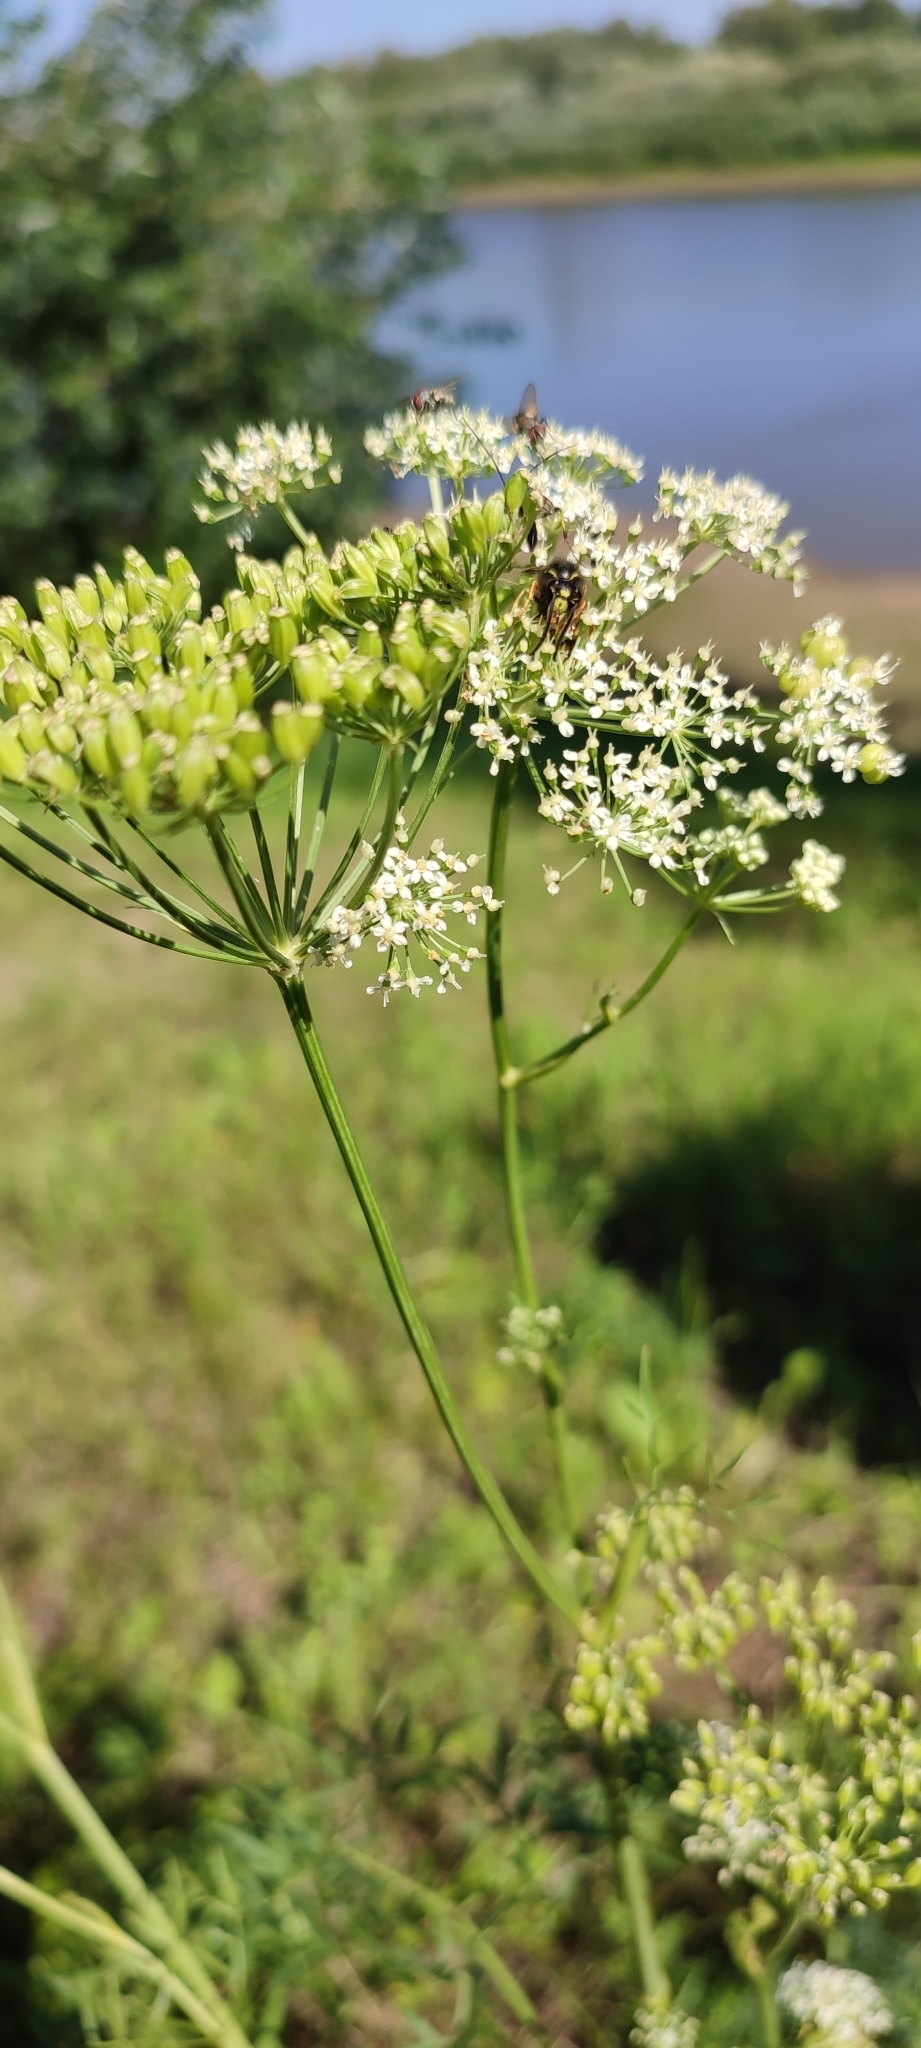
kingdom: Plantae
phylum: Tracheophyta
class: Magnoliopsida
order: Apiales
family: Apiaceae
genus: Cenolophium
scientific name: Cenolophium fischeri
